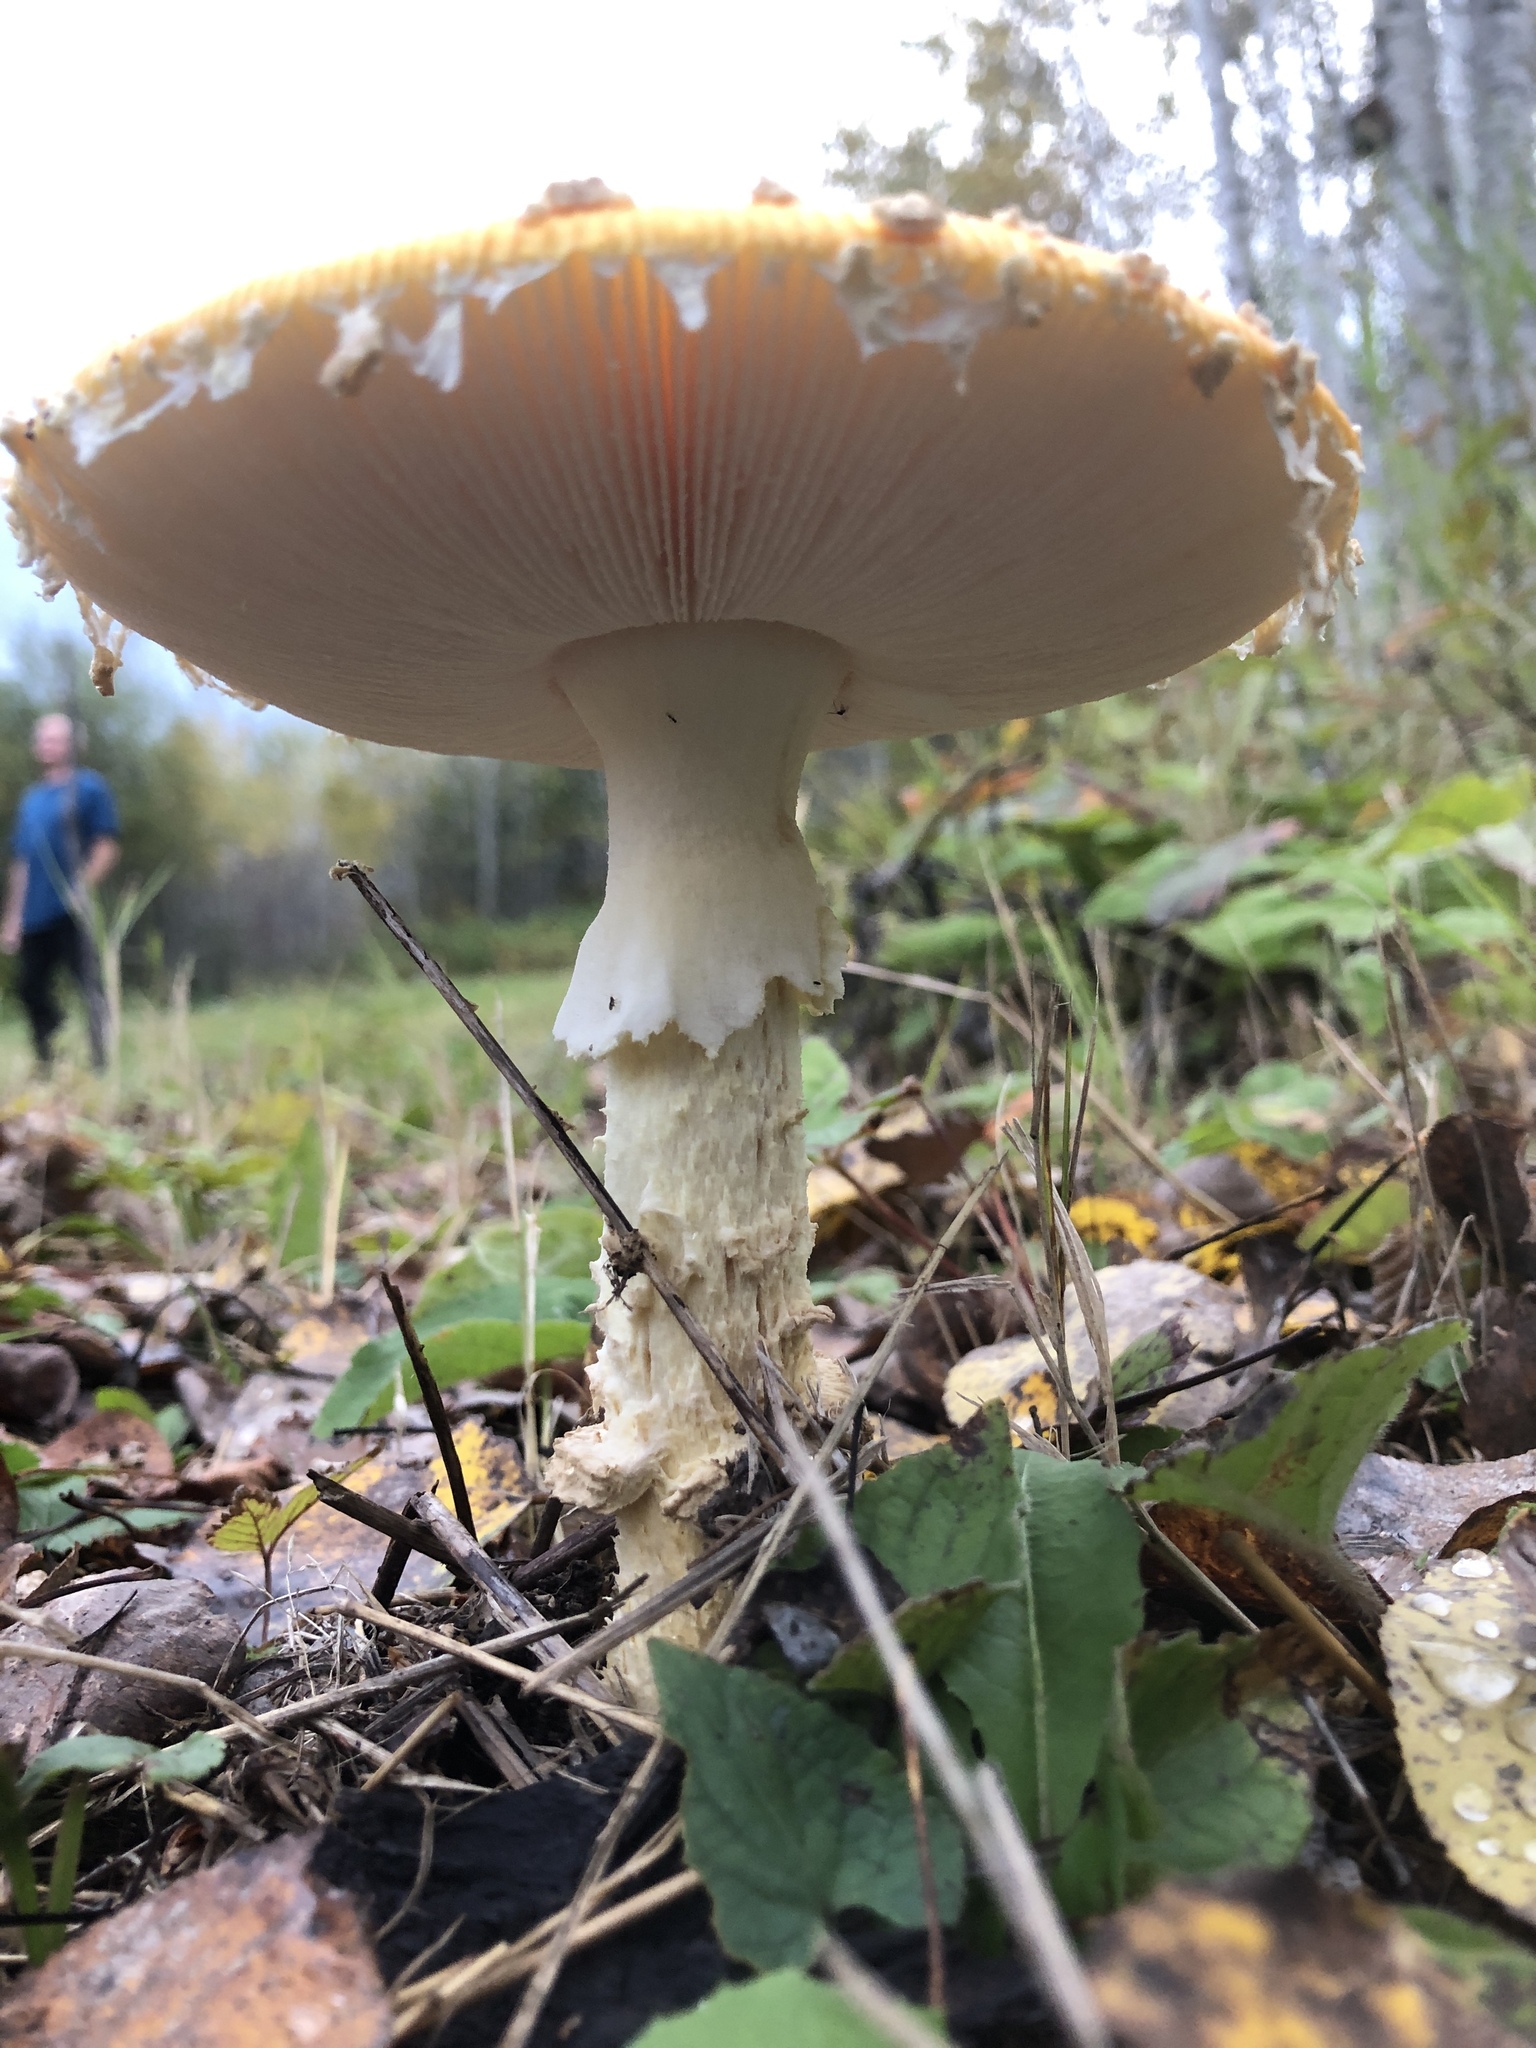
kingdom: Fungi
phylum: Basidiomycota
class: Agaricomycetes
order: Agaricales
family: Amanitaceae
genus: Amanita
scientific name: Amanita muscaria
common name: Fly agaric
